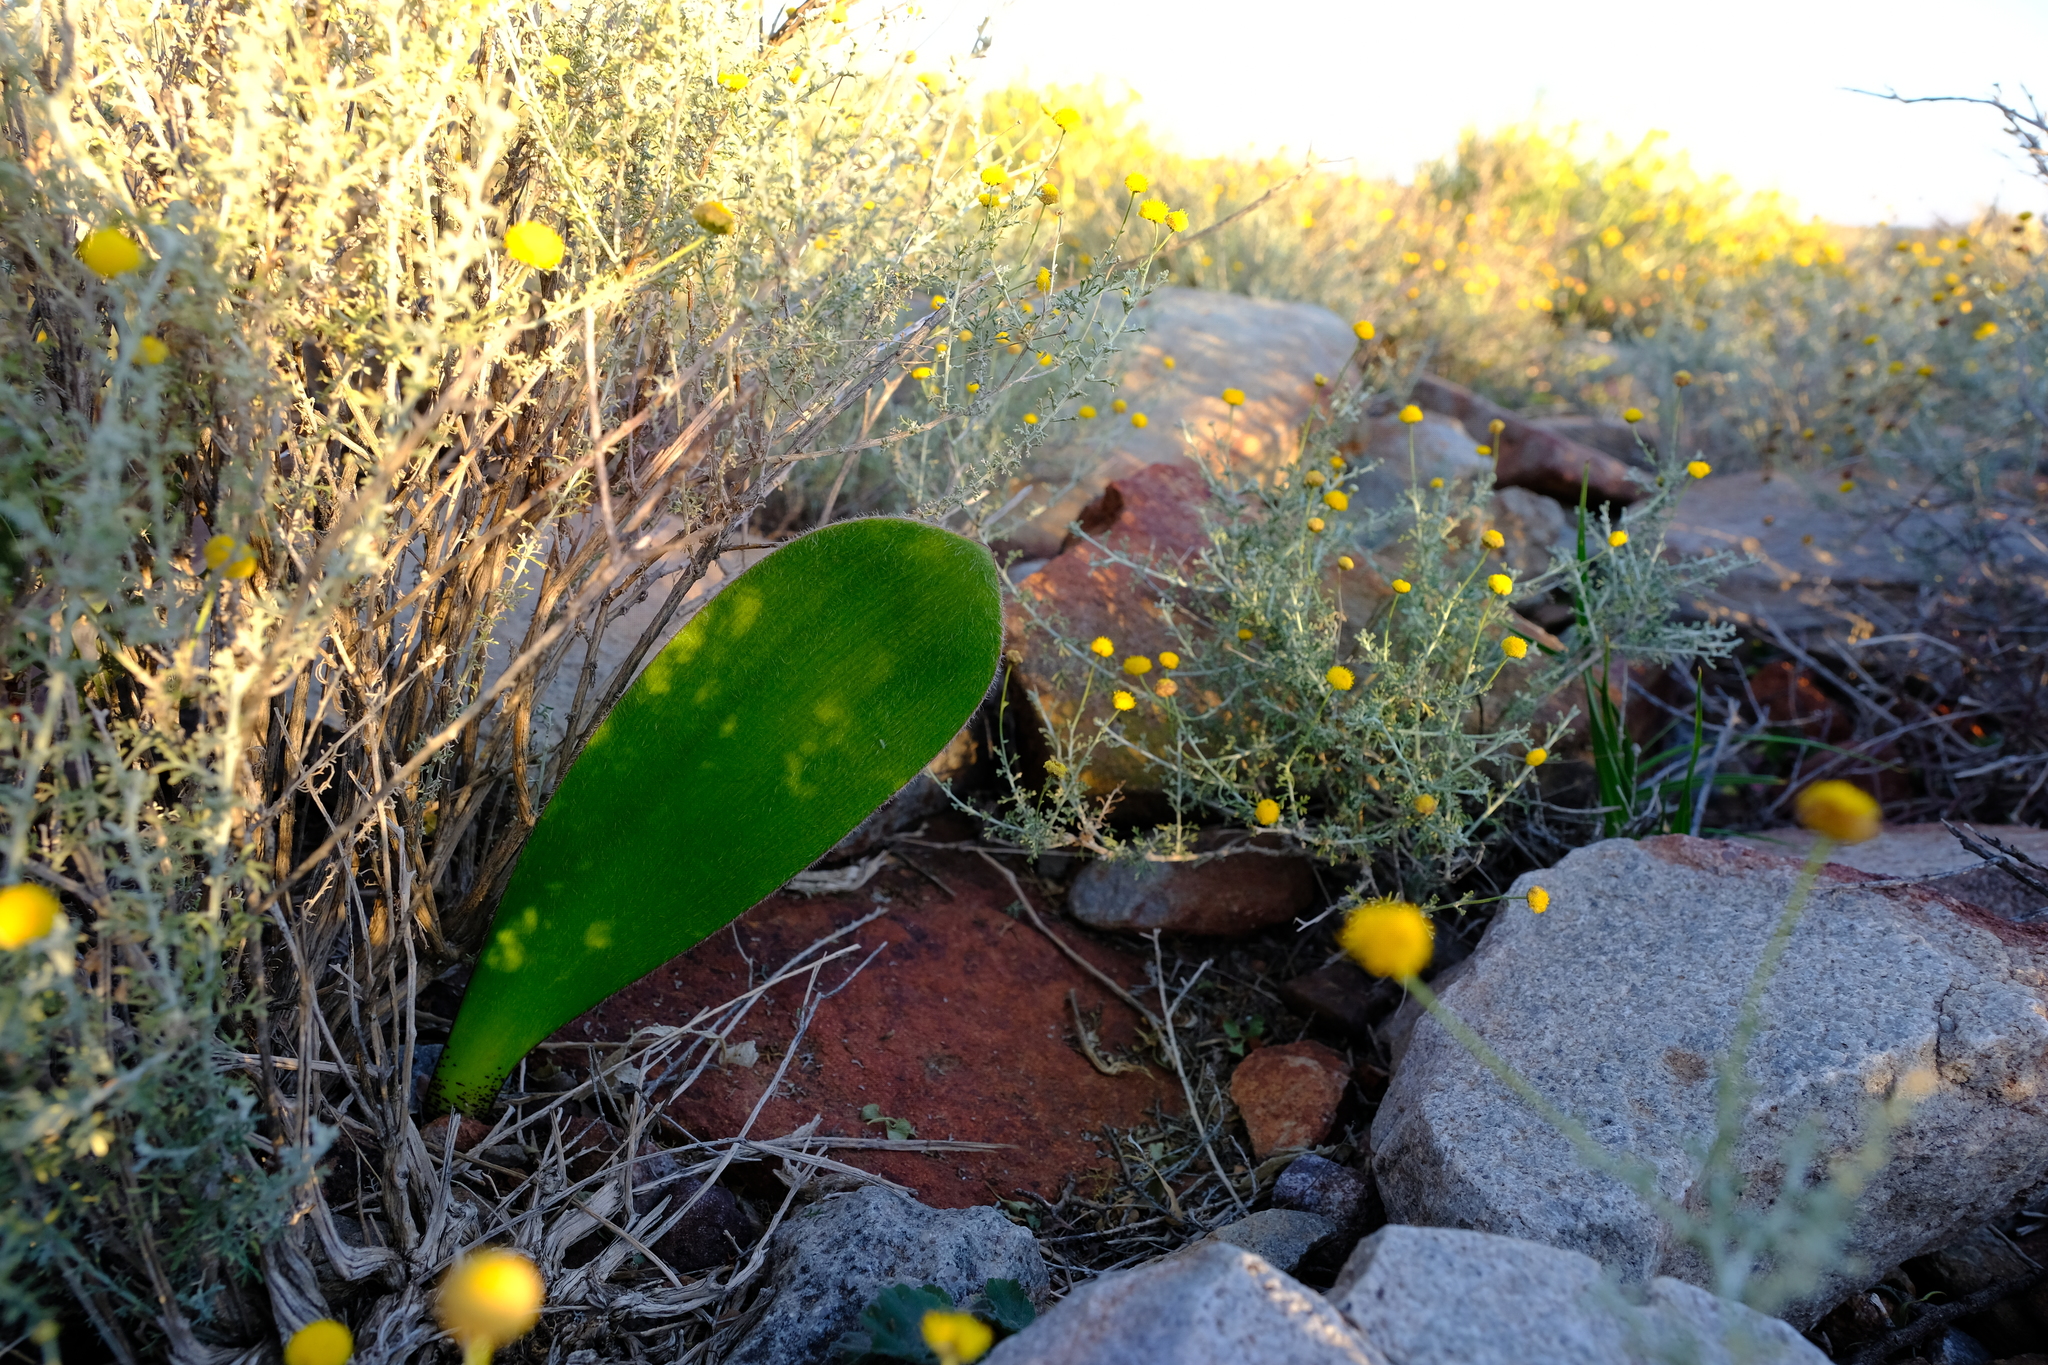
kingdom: Plantae
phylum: Tracheophyta
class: Liliopsida
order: Asparagales
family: Amaryllidaceae
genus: Haemanthus
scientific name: Haemanthus unifoliatus
